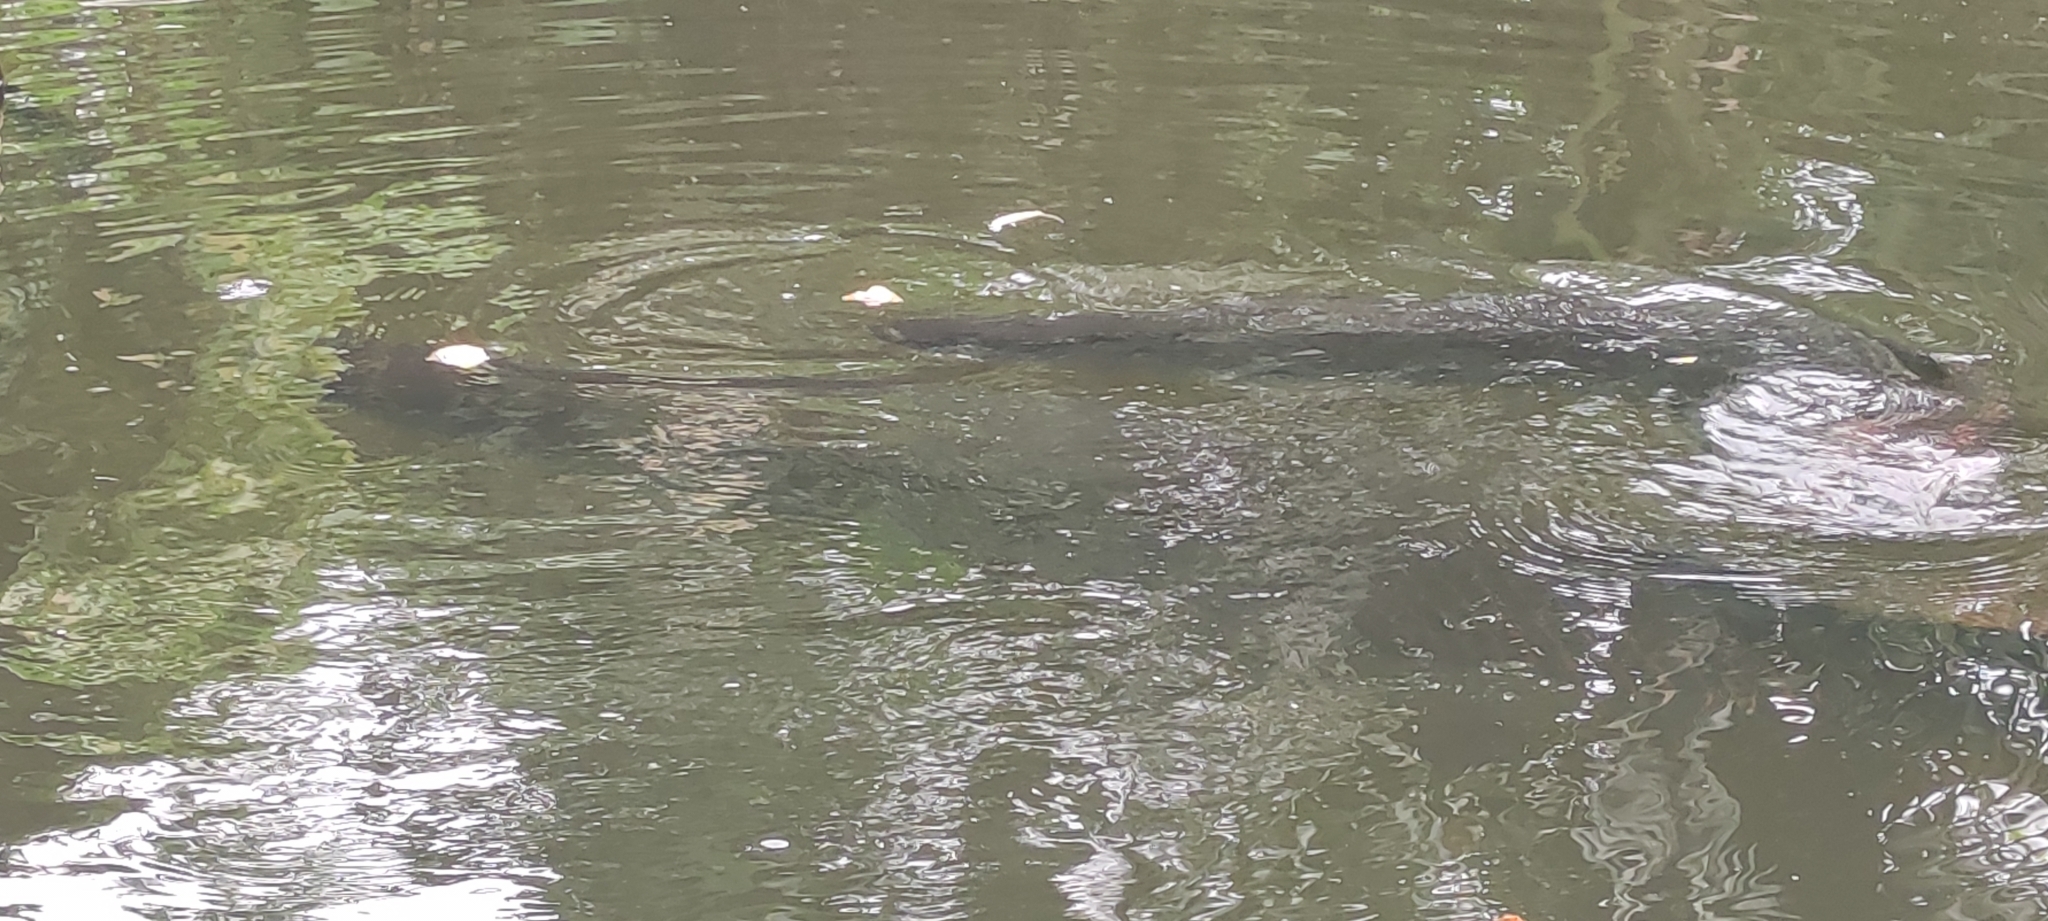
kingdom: Animalia
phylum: Chordata
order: Osteoglossiformes
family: Arapaimidae
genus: Arapaima
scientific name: Arapaima gigas
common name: Arapaima
